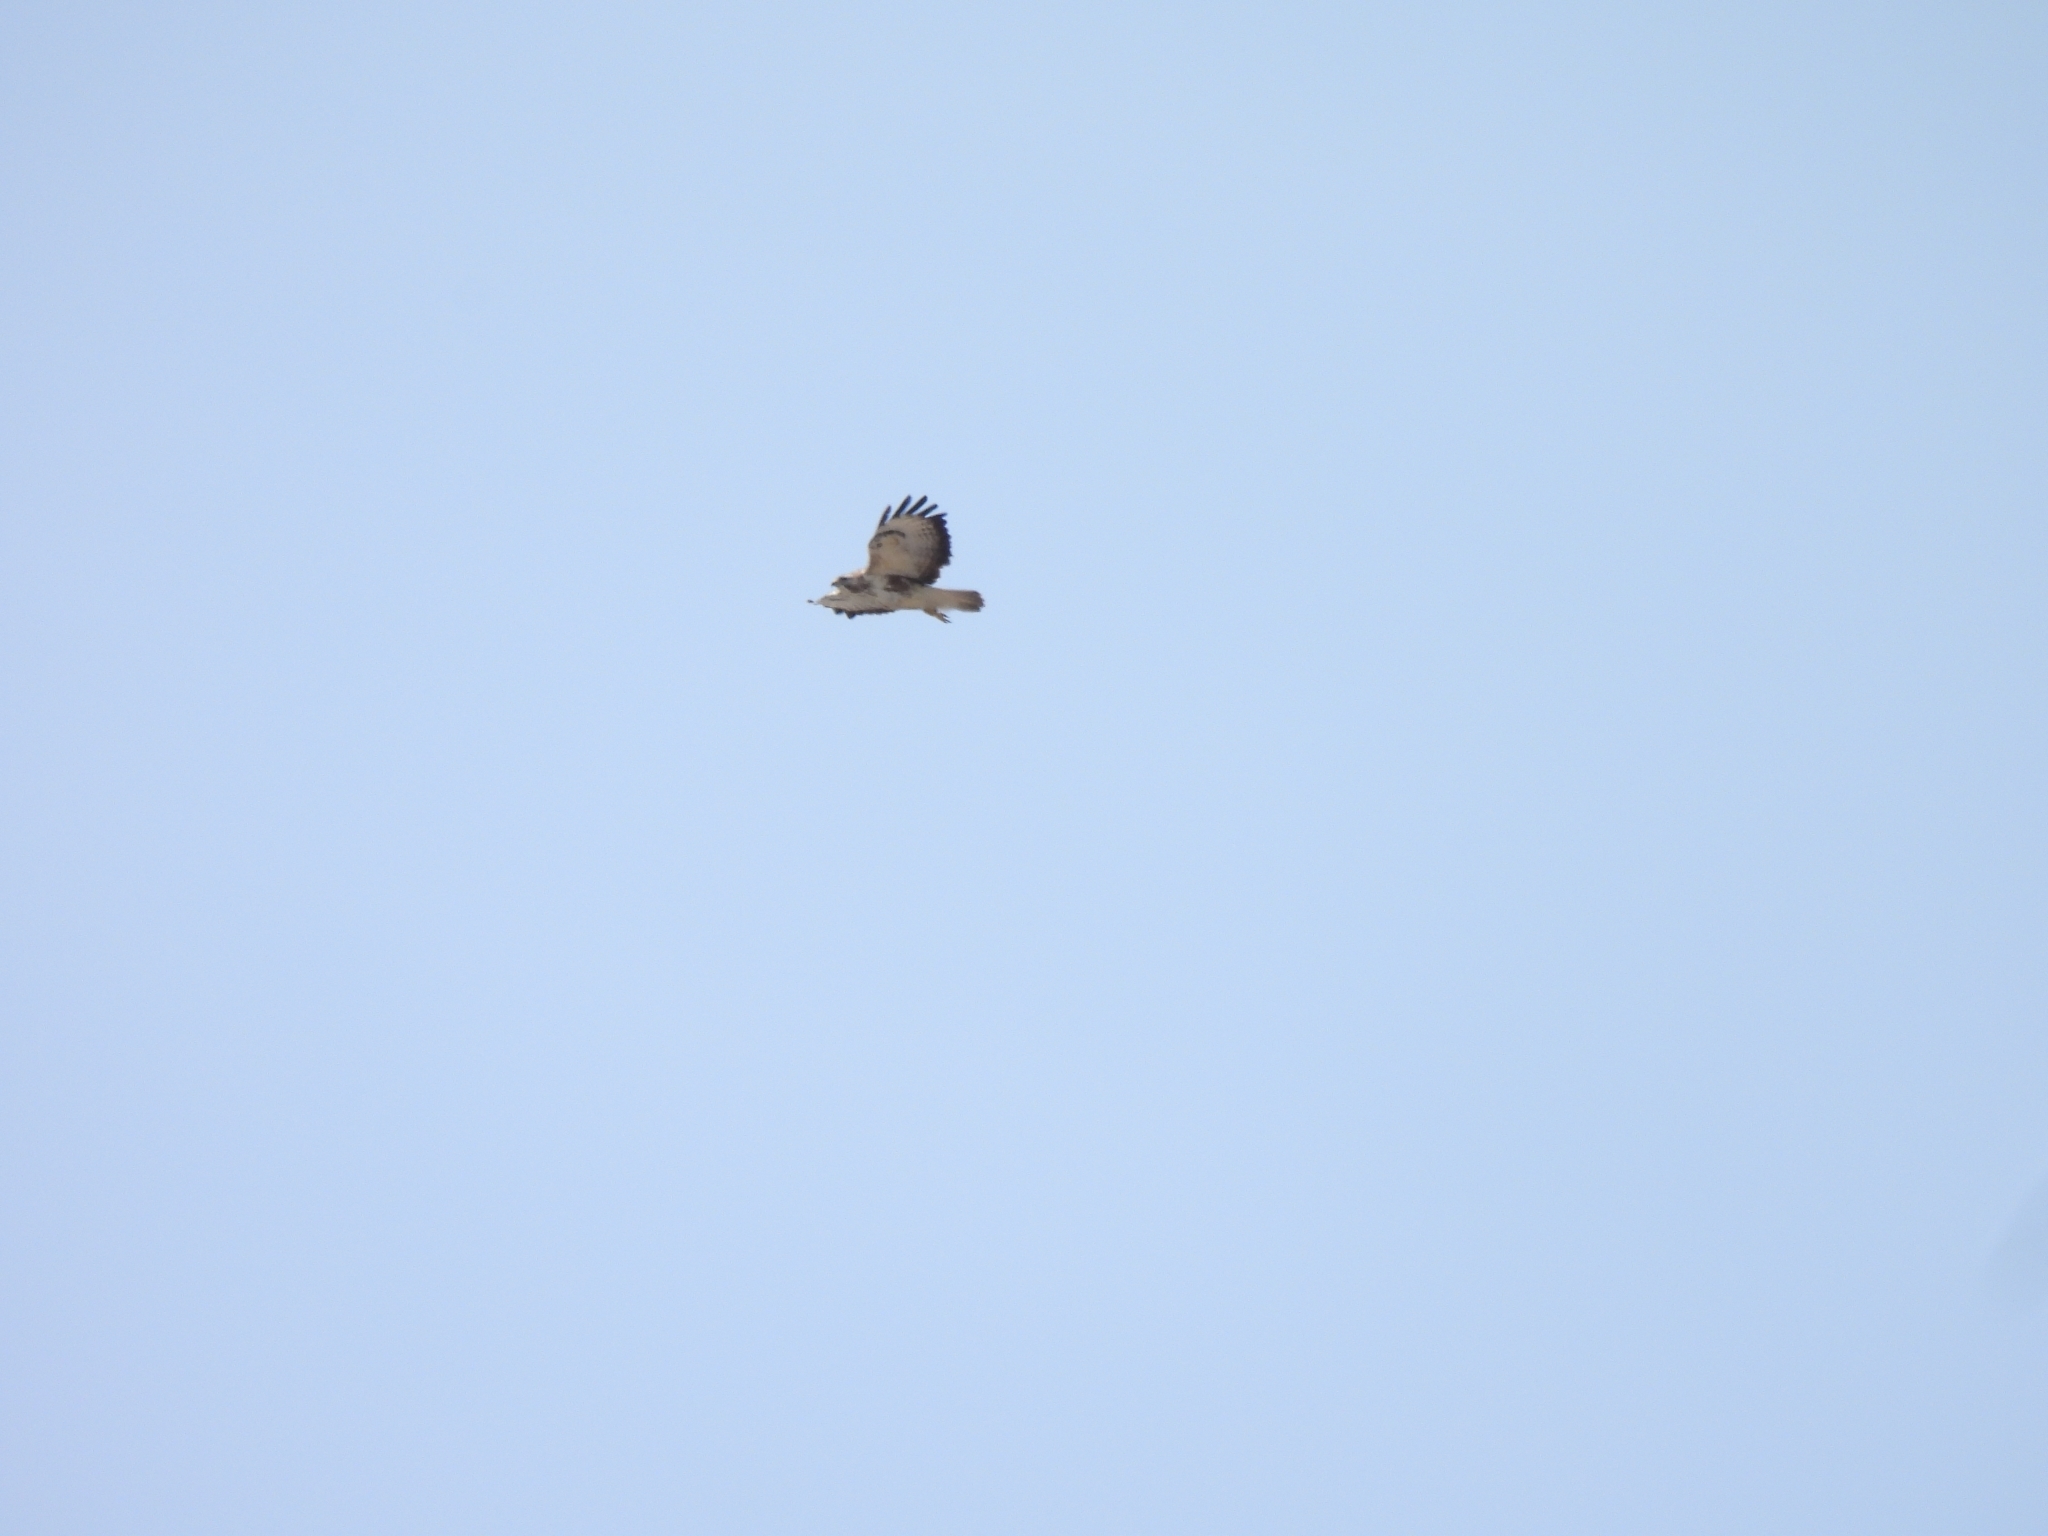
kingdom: Animalia
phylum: Chordata
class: Aves
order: Accipitriformes
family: Accipitridae
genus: Buteo
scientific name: Buteo buteo
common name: Common buzzard
